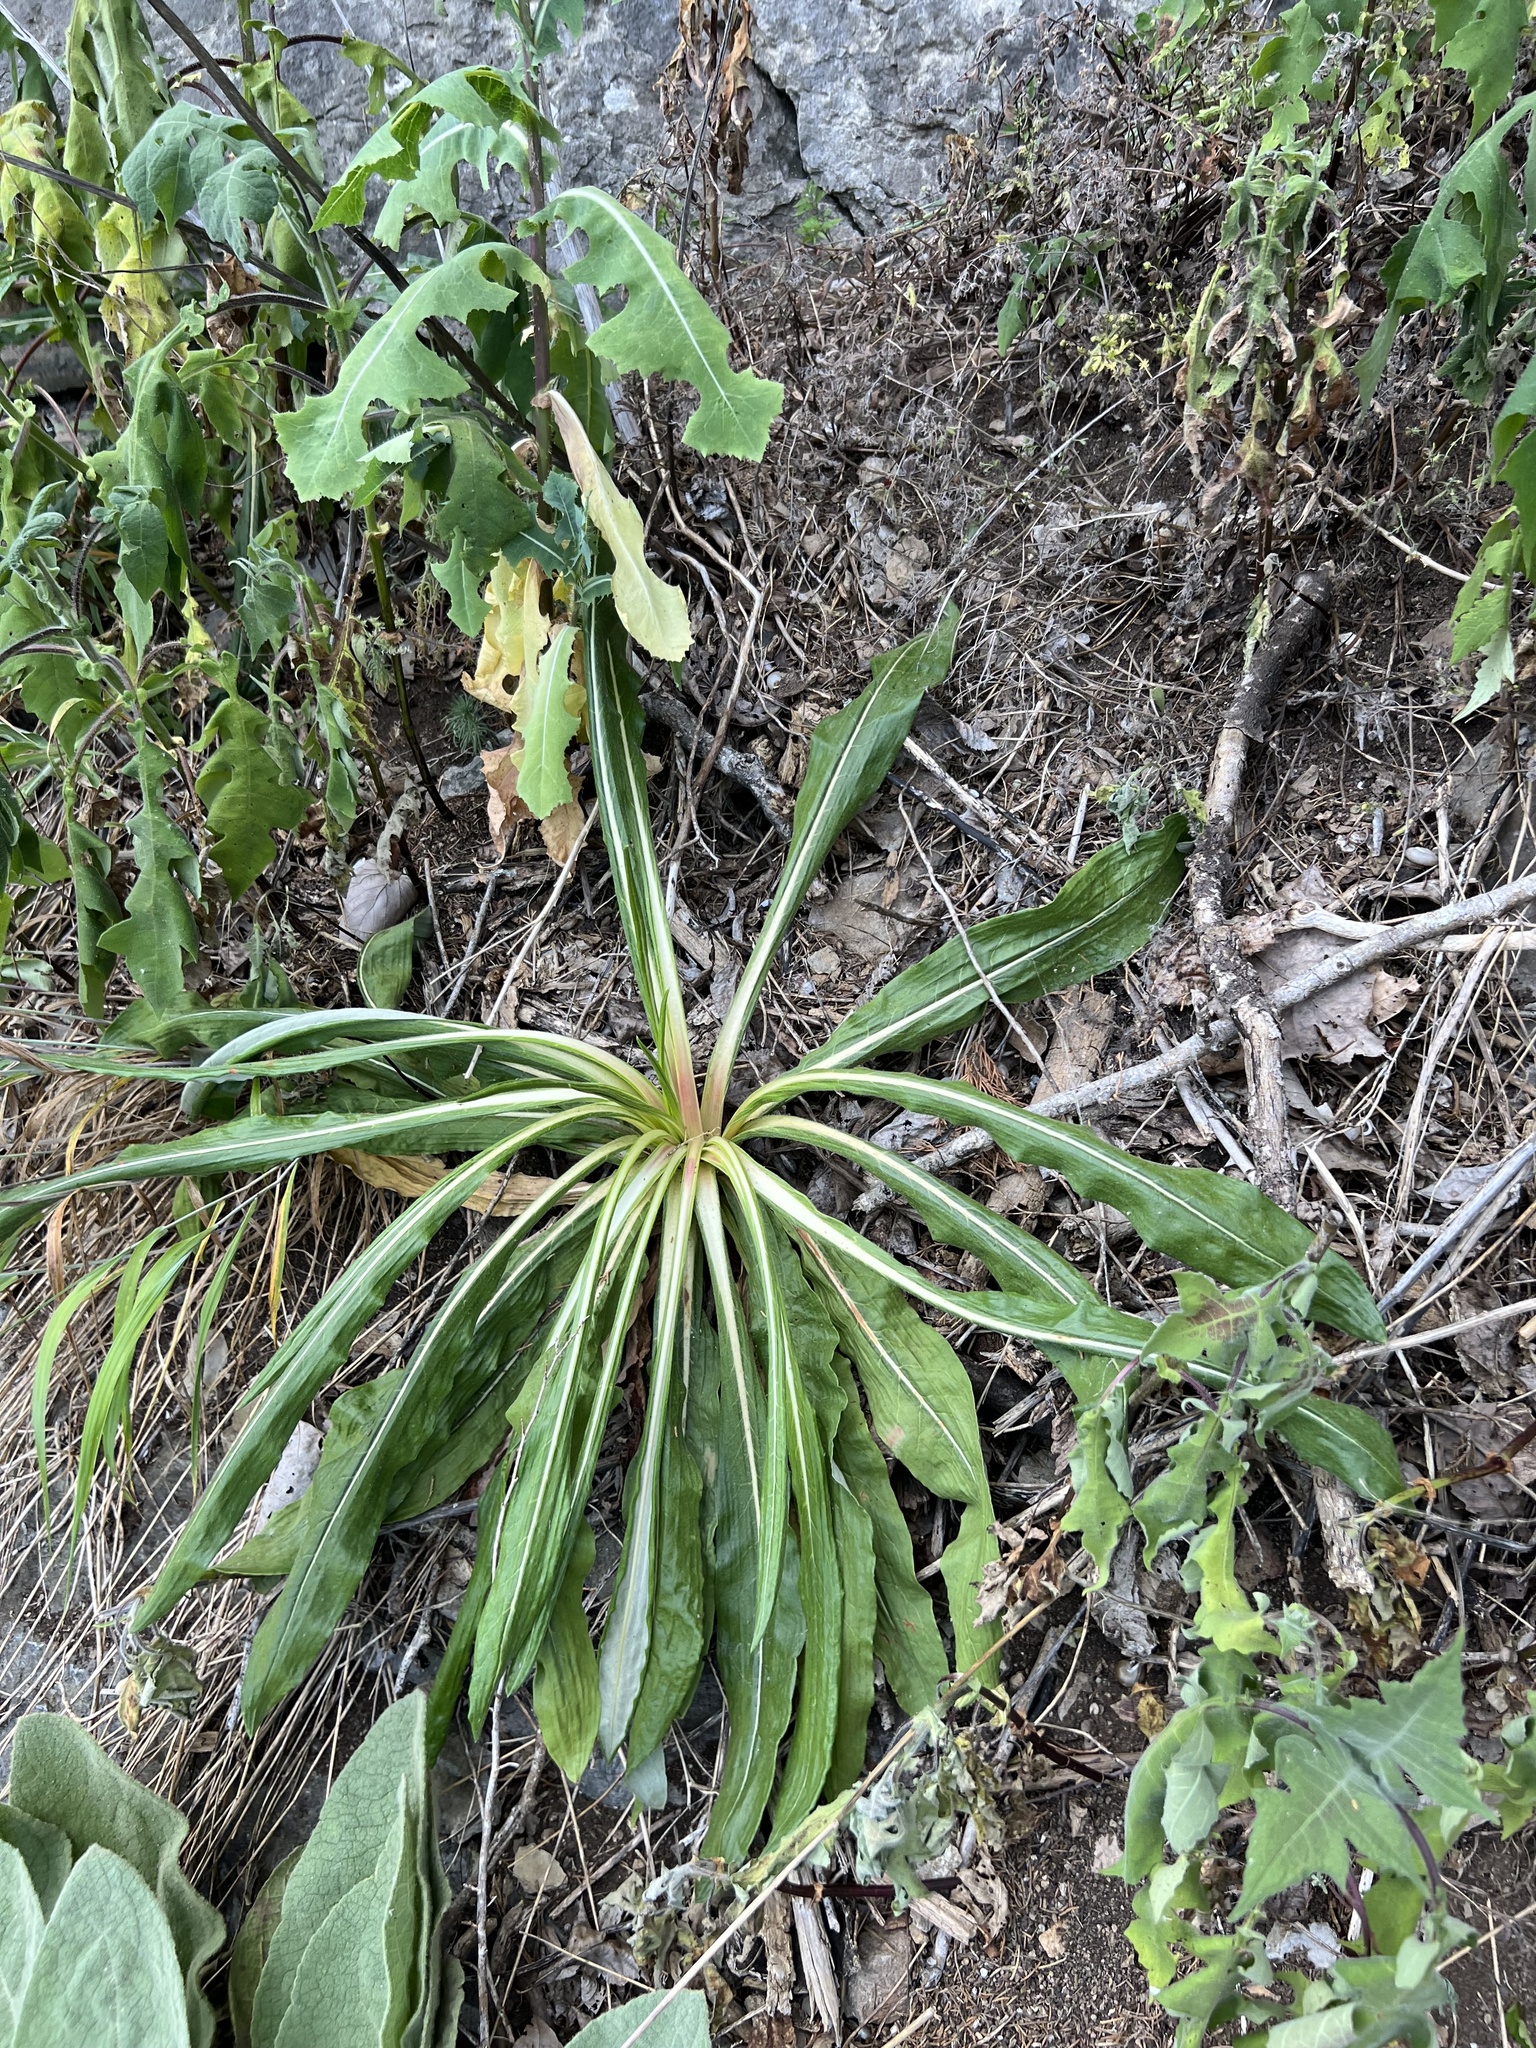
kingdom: Plantae
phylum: Tracheophyta
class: Magnoliopsida
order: Caryophyllales
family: Polygonaceae
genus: Eriogonum
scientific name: Eriogonum longifolium
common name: Longleaf wild buckwheat
